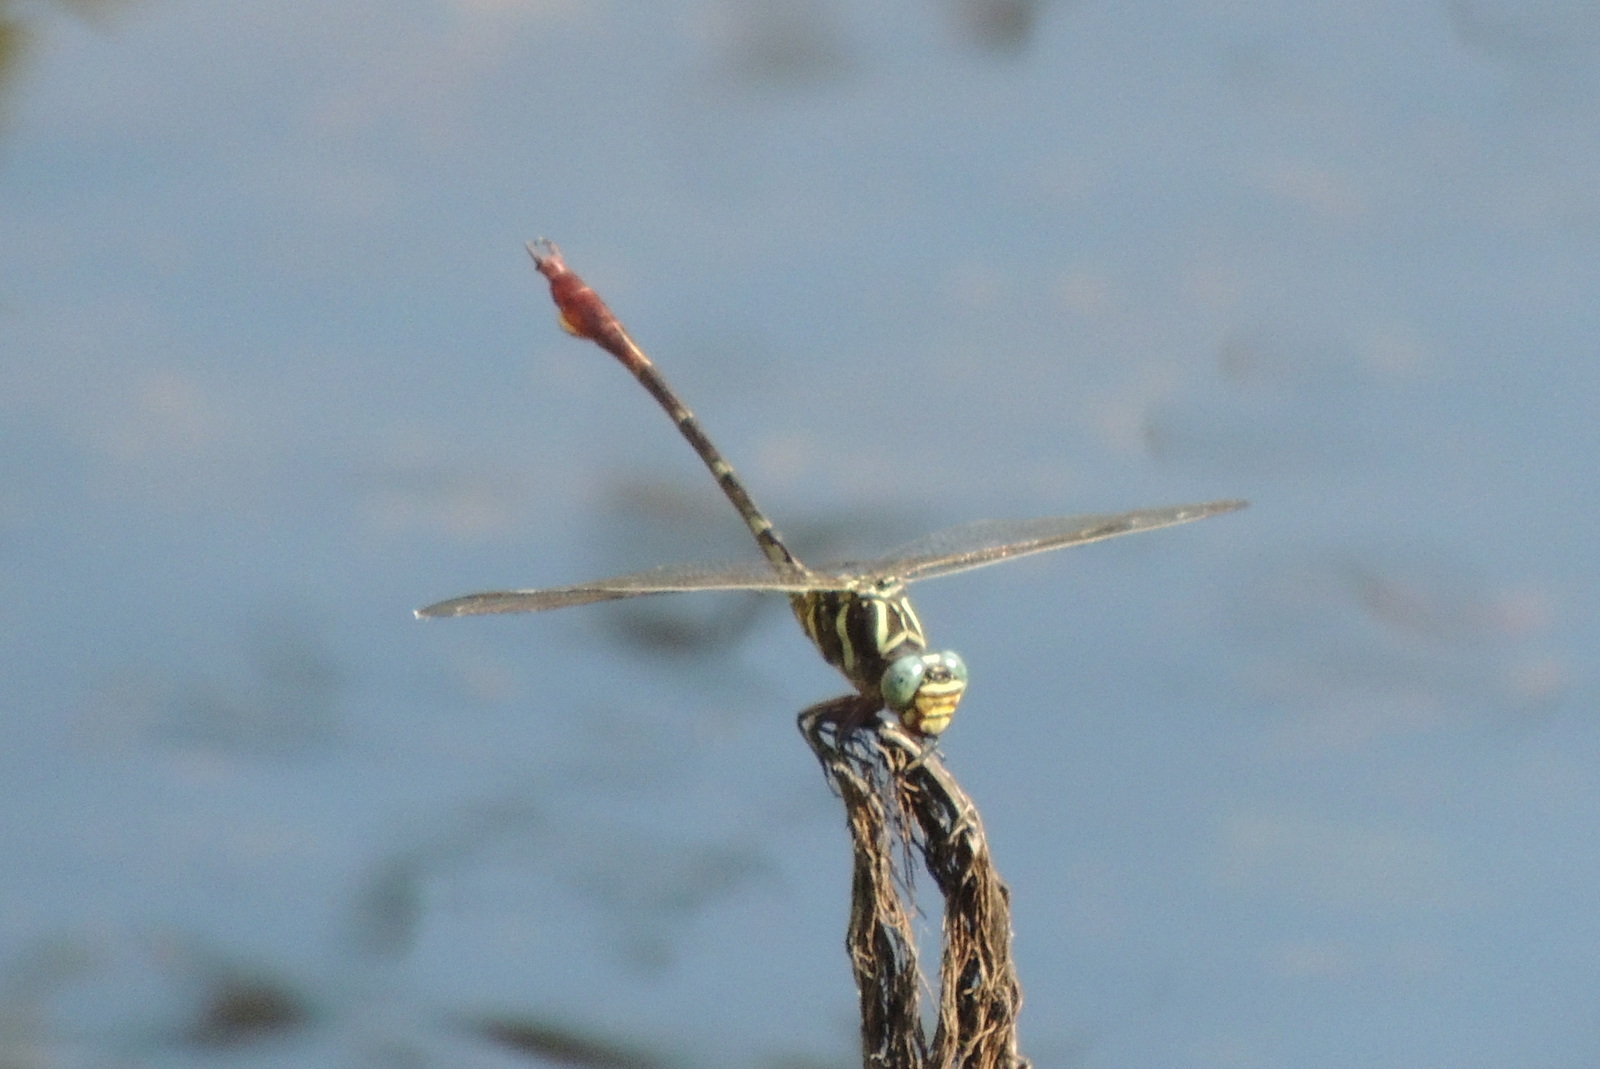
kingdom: Animalia
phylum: Arthropoda
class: Insecta
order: Odonata
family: Gomphidae
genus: Aphylla
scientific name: Aphylla williamsoni
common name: Two-striped forceptail
